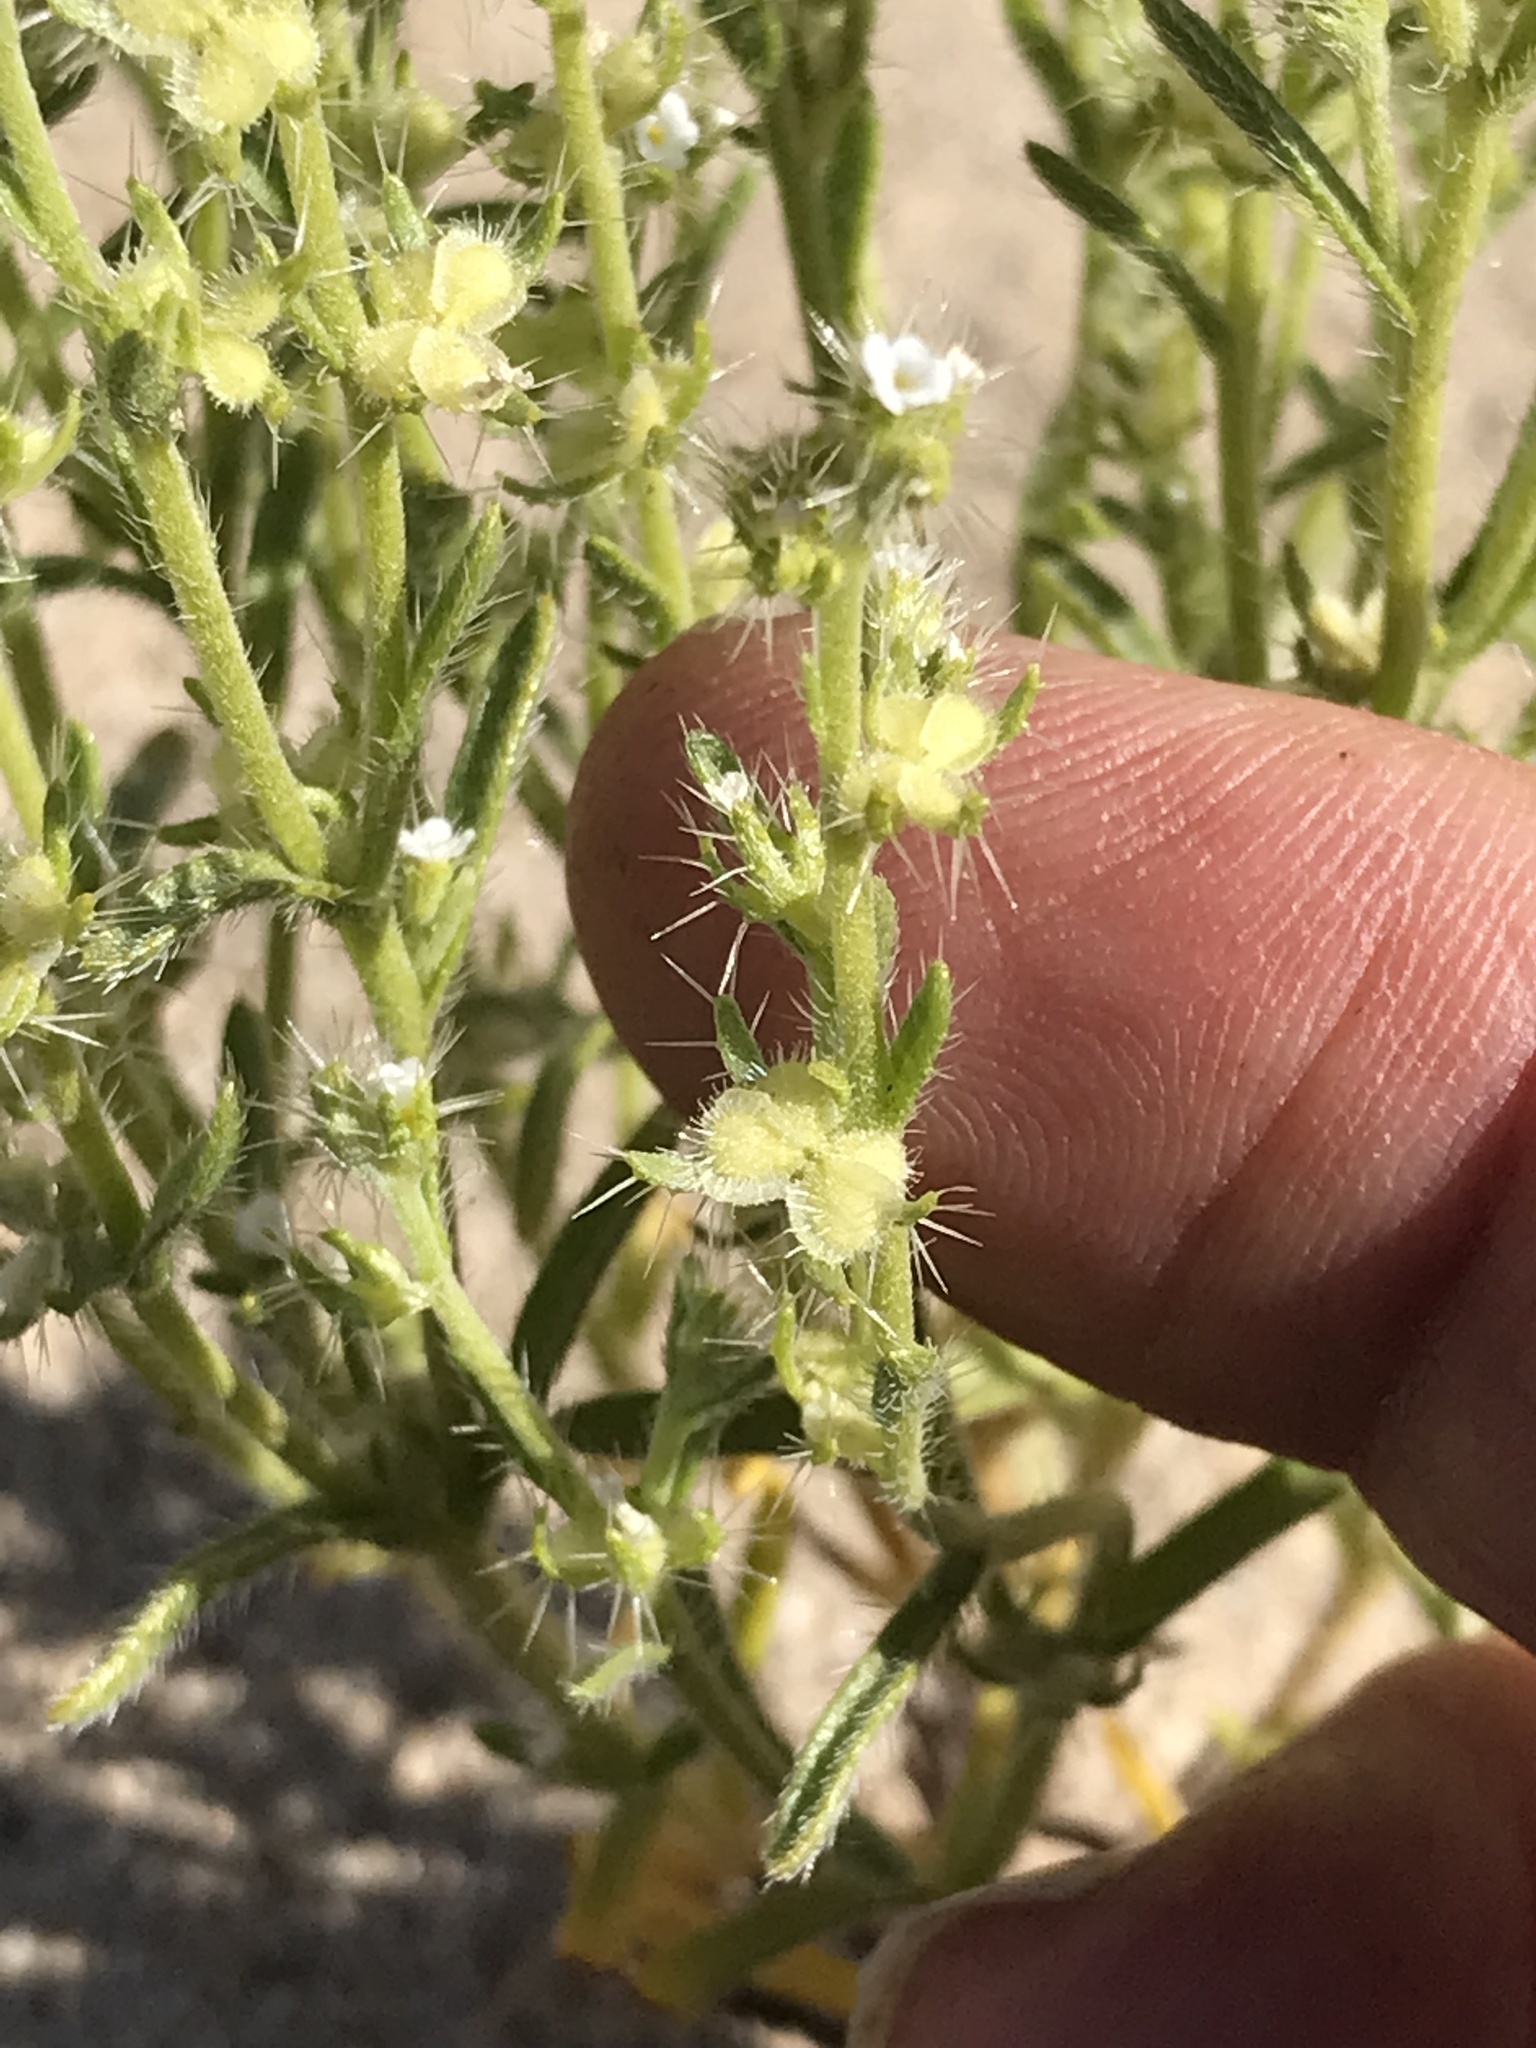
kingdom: Plantae
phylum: Tracheophyta
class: Magnoliopsida
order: Boraginales
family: Boraginaceae
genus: Pectocarya
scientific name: Pectocarya setosa
